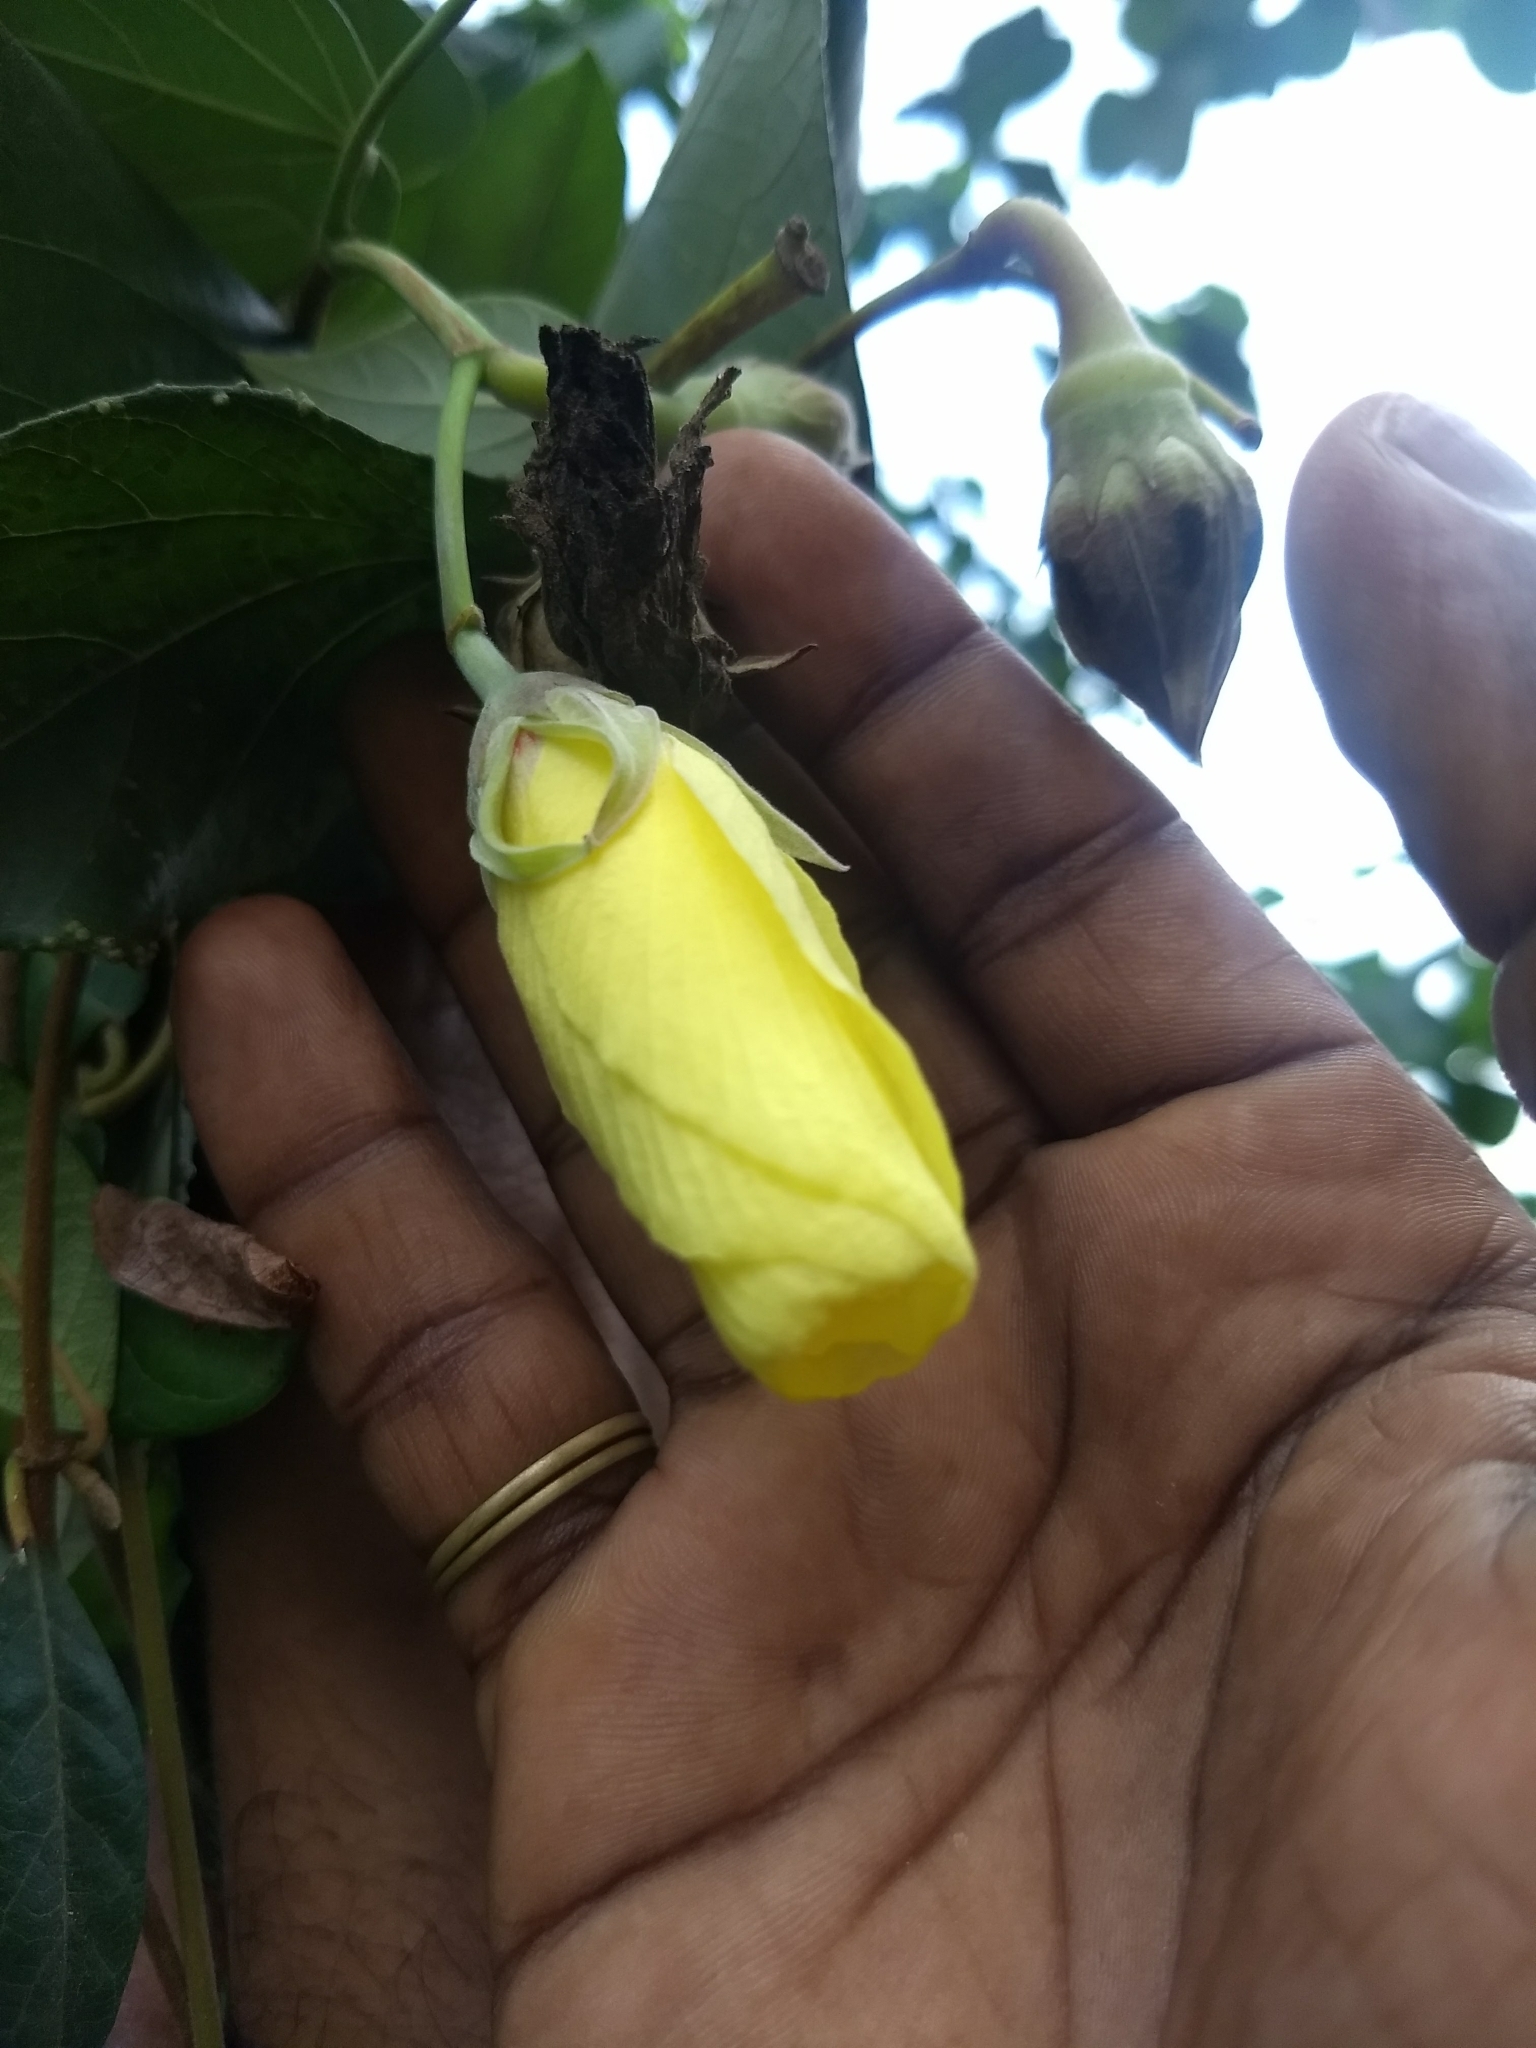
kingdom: Plantae
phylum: Tracheophyta
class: Magnoliopsida
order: Malvales
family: Malvaceae
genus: Talipariti
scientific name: Talipariti tiliaceum
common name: Sea hibiscus
